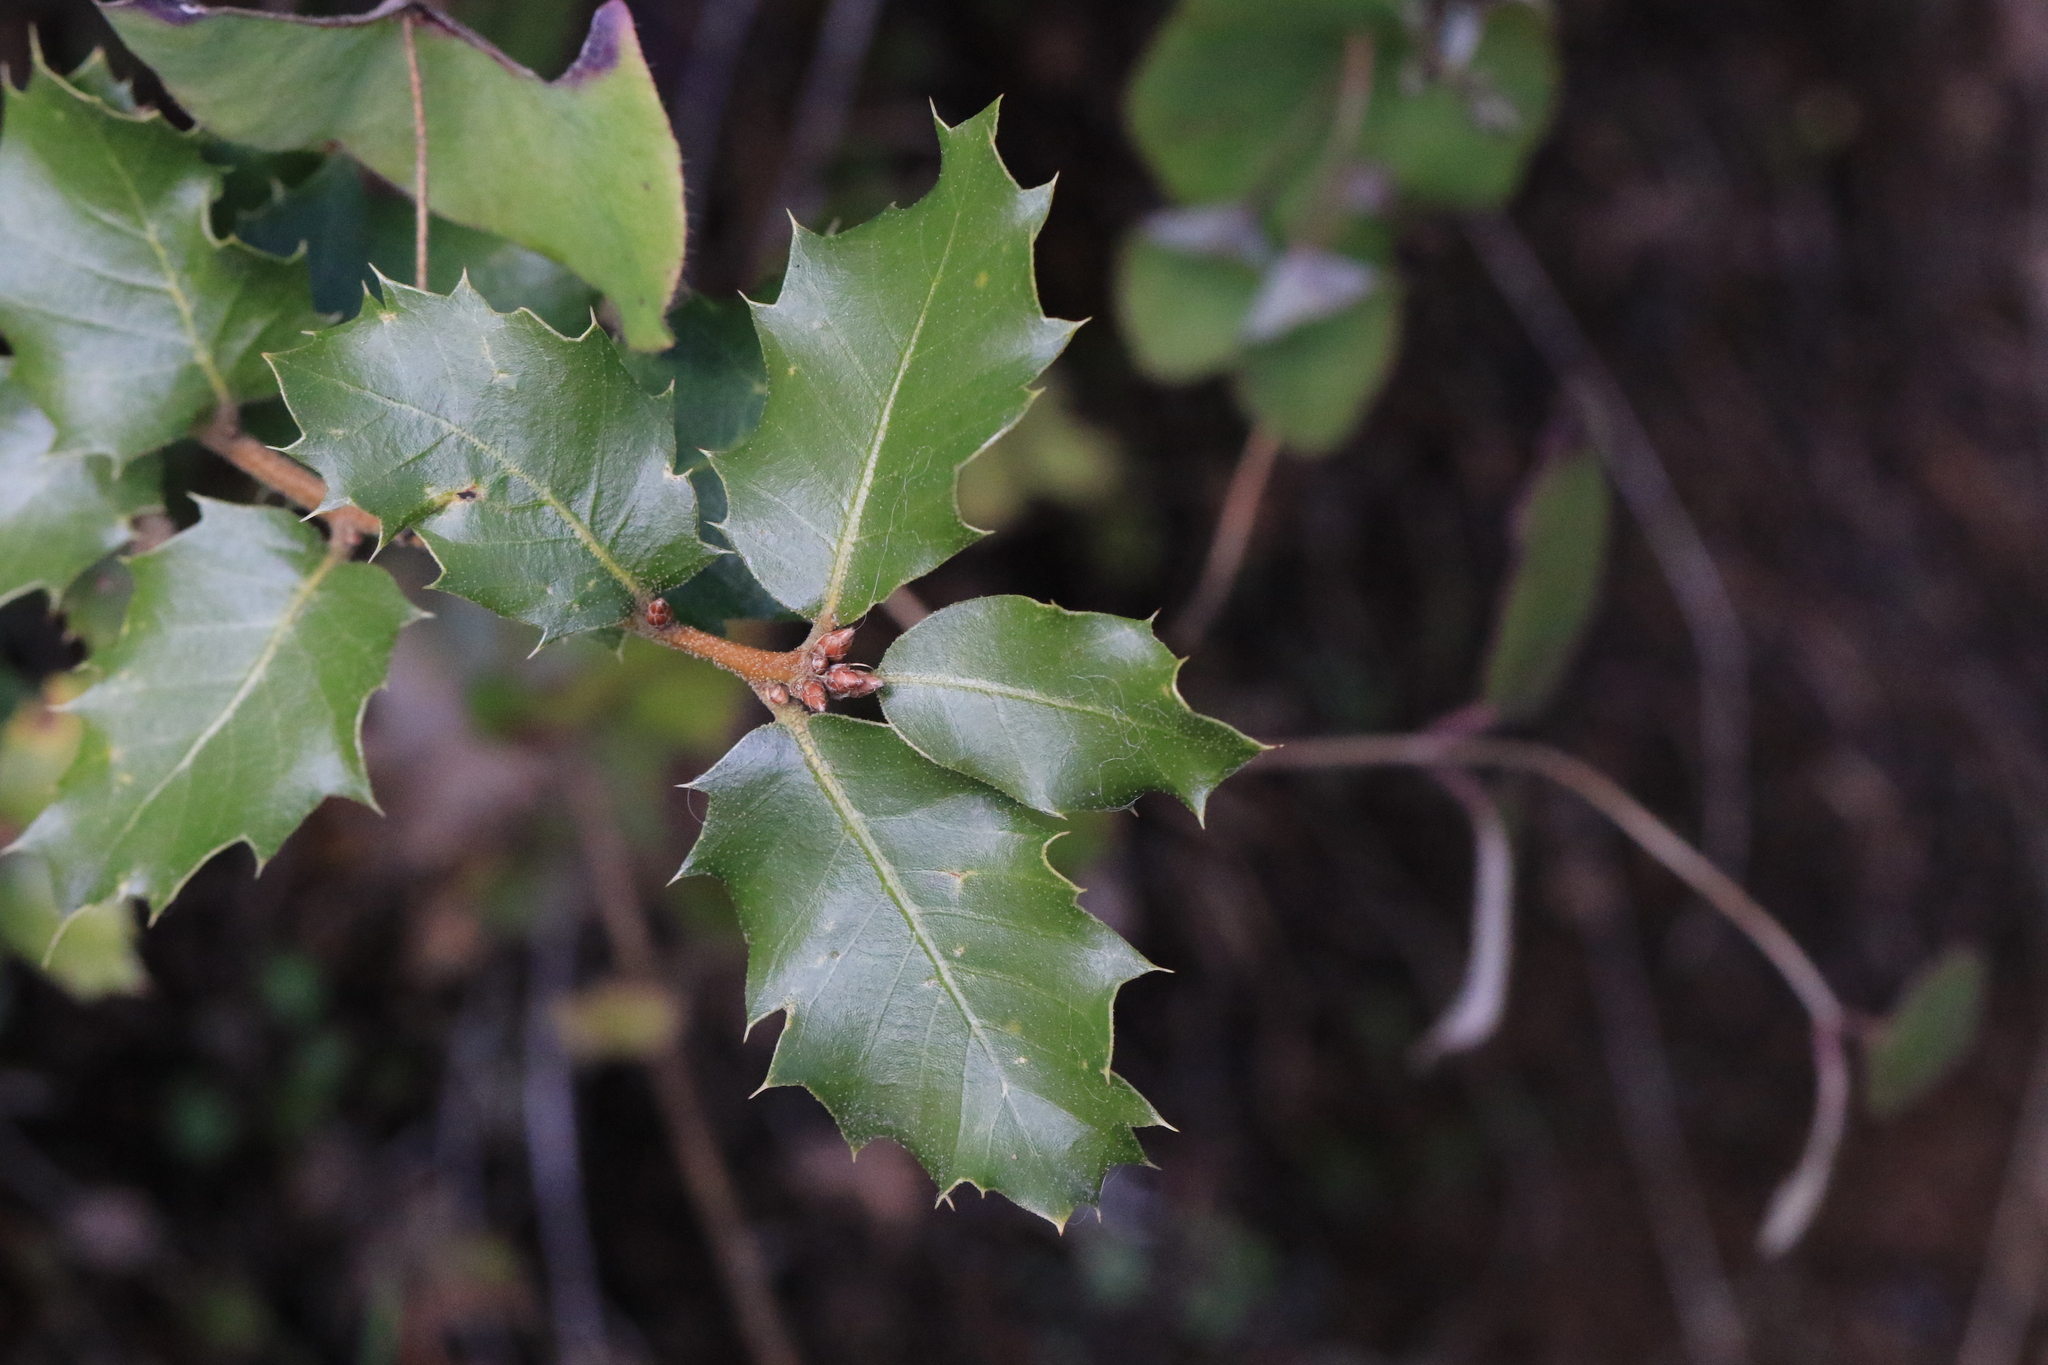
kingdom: Plantae
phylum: Tracheophyta
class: Magnoliopsida
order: Fagales
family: Fagaceae
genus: Quercus
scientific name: Quercus chrysolepis
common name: Canyon live oak
